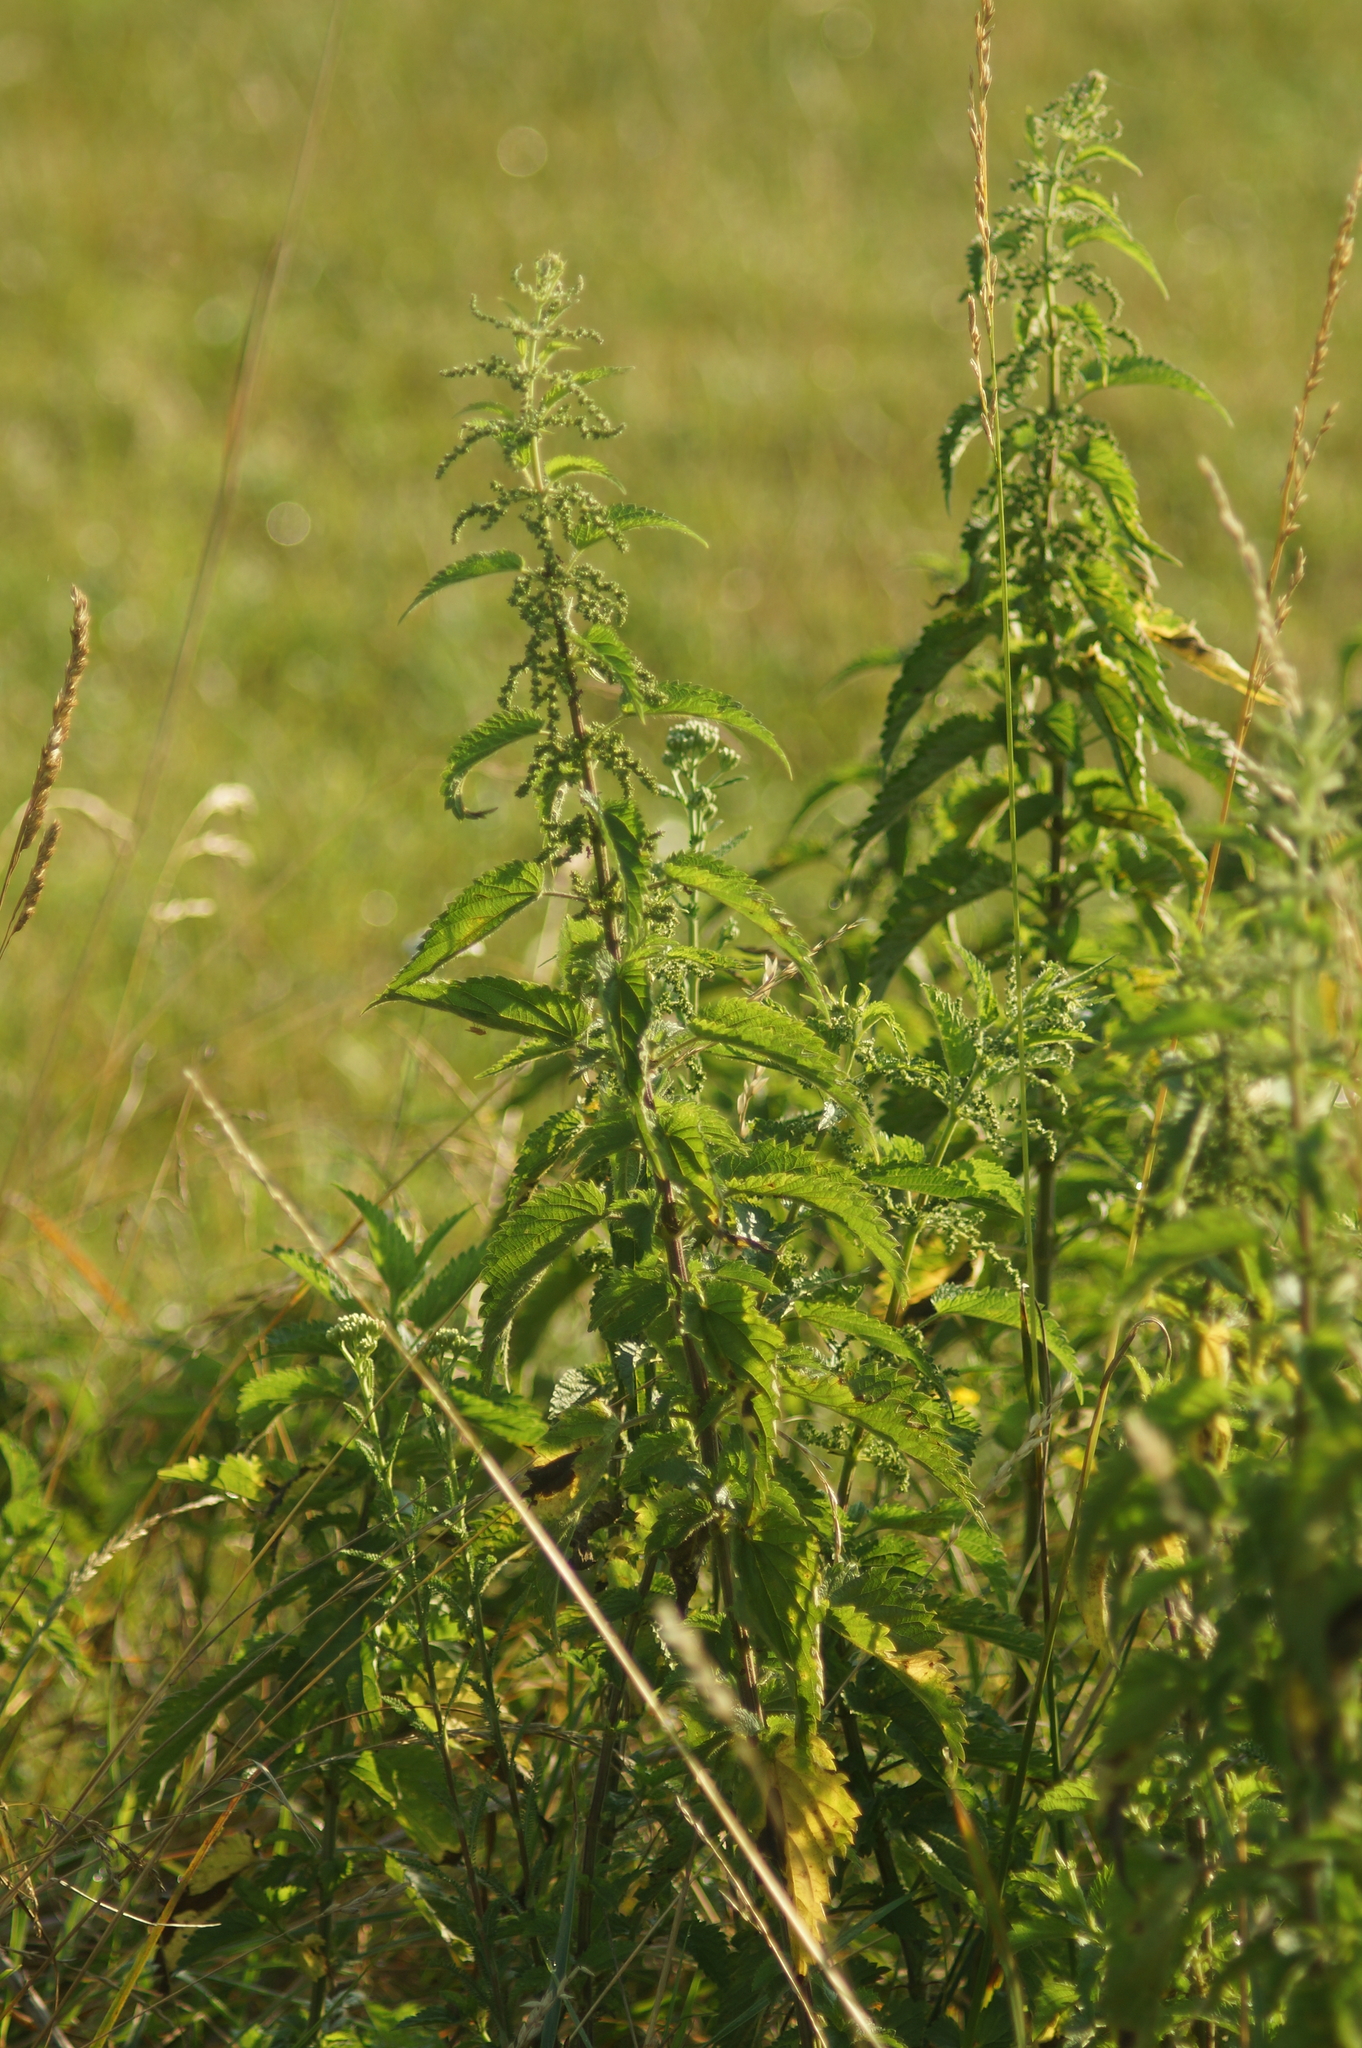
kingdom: Plantae
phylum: Tracheophyta
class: Magnoliopsida
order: Rosales
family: Urticaceae
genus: Urtica
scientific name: Urtica dioica
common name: Common nettle
